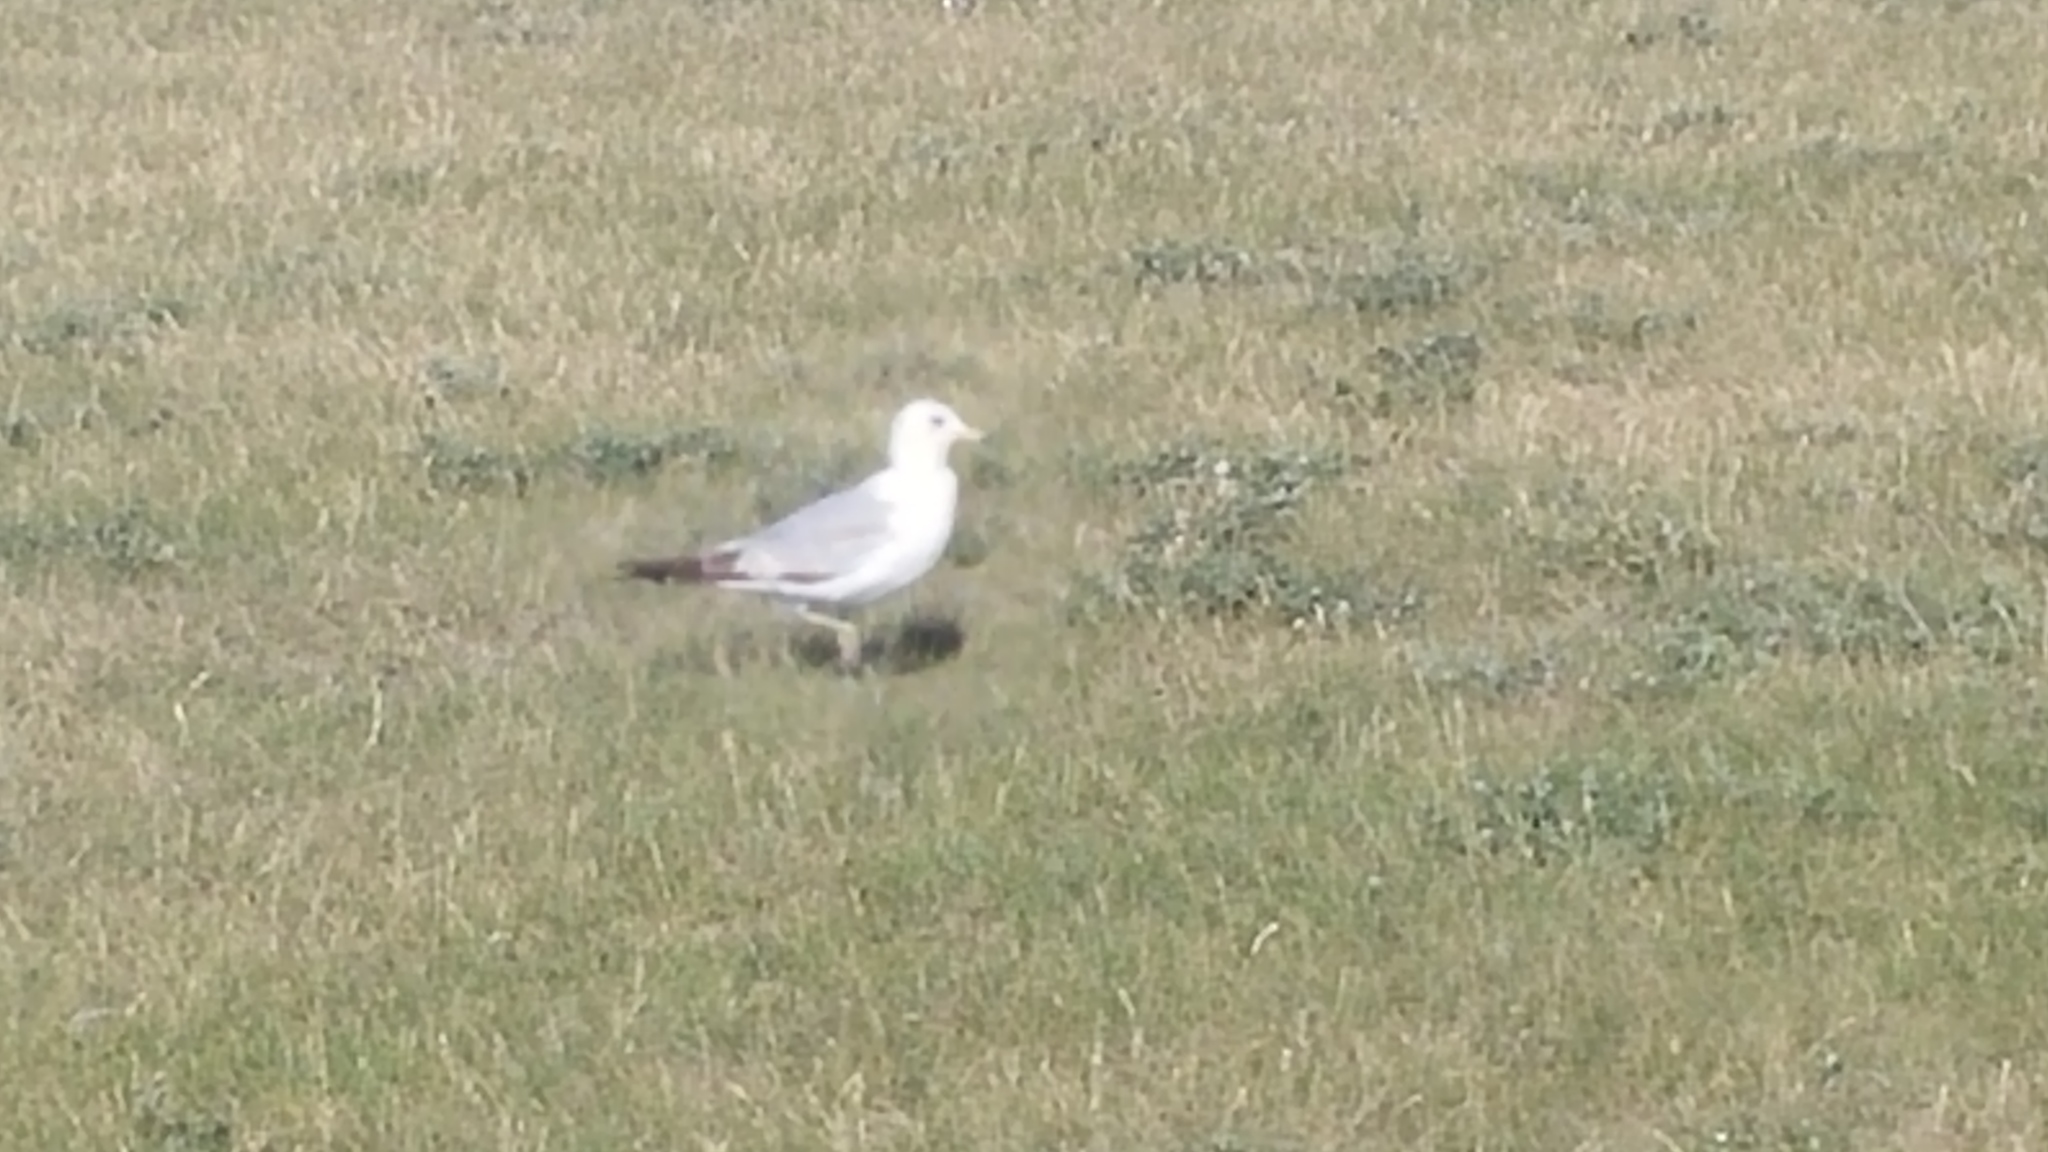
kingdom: Animalia
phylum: Chordata
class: Aves
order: Charadriiformes
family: Laridae
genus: Larus
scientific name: Larus delawarensis
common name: Ring-billed gull
